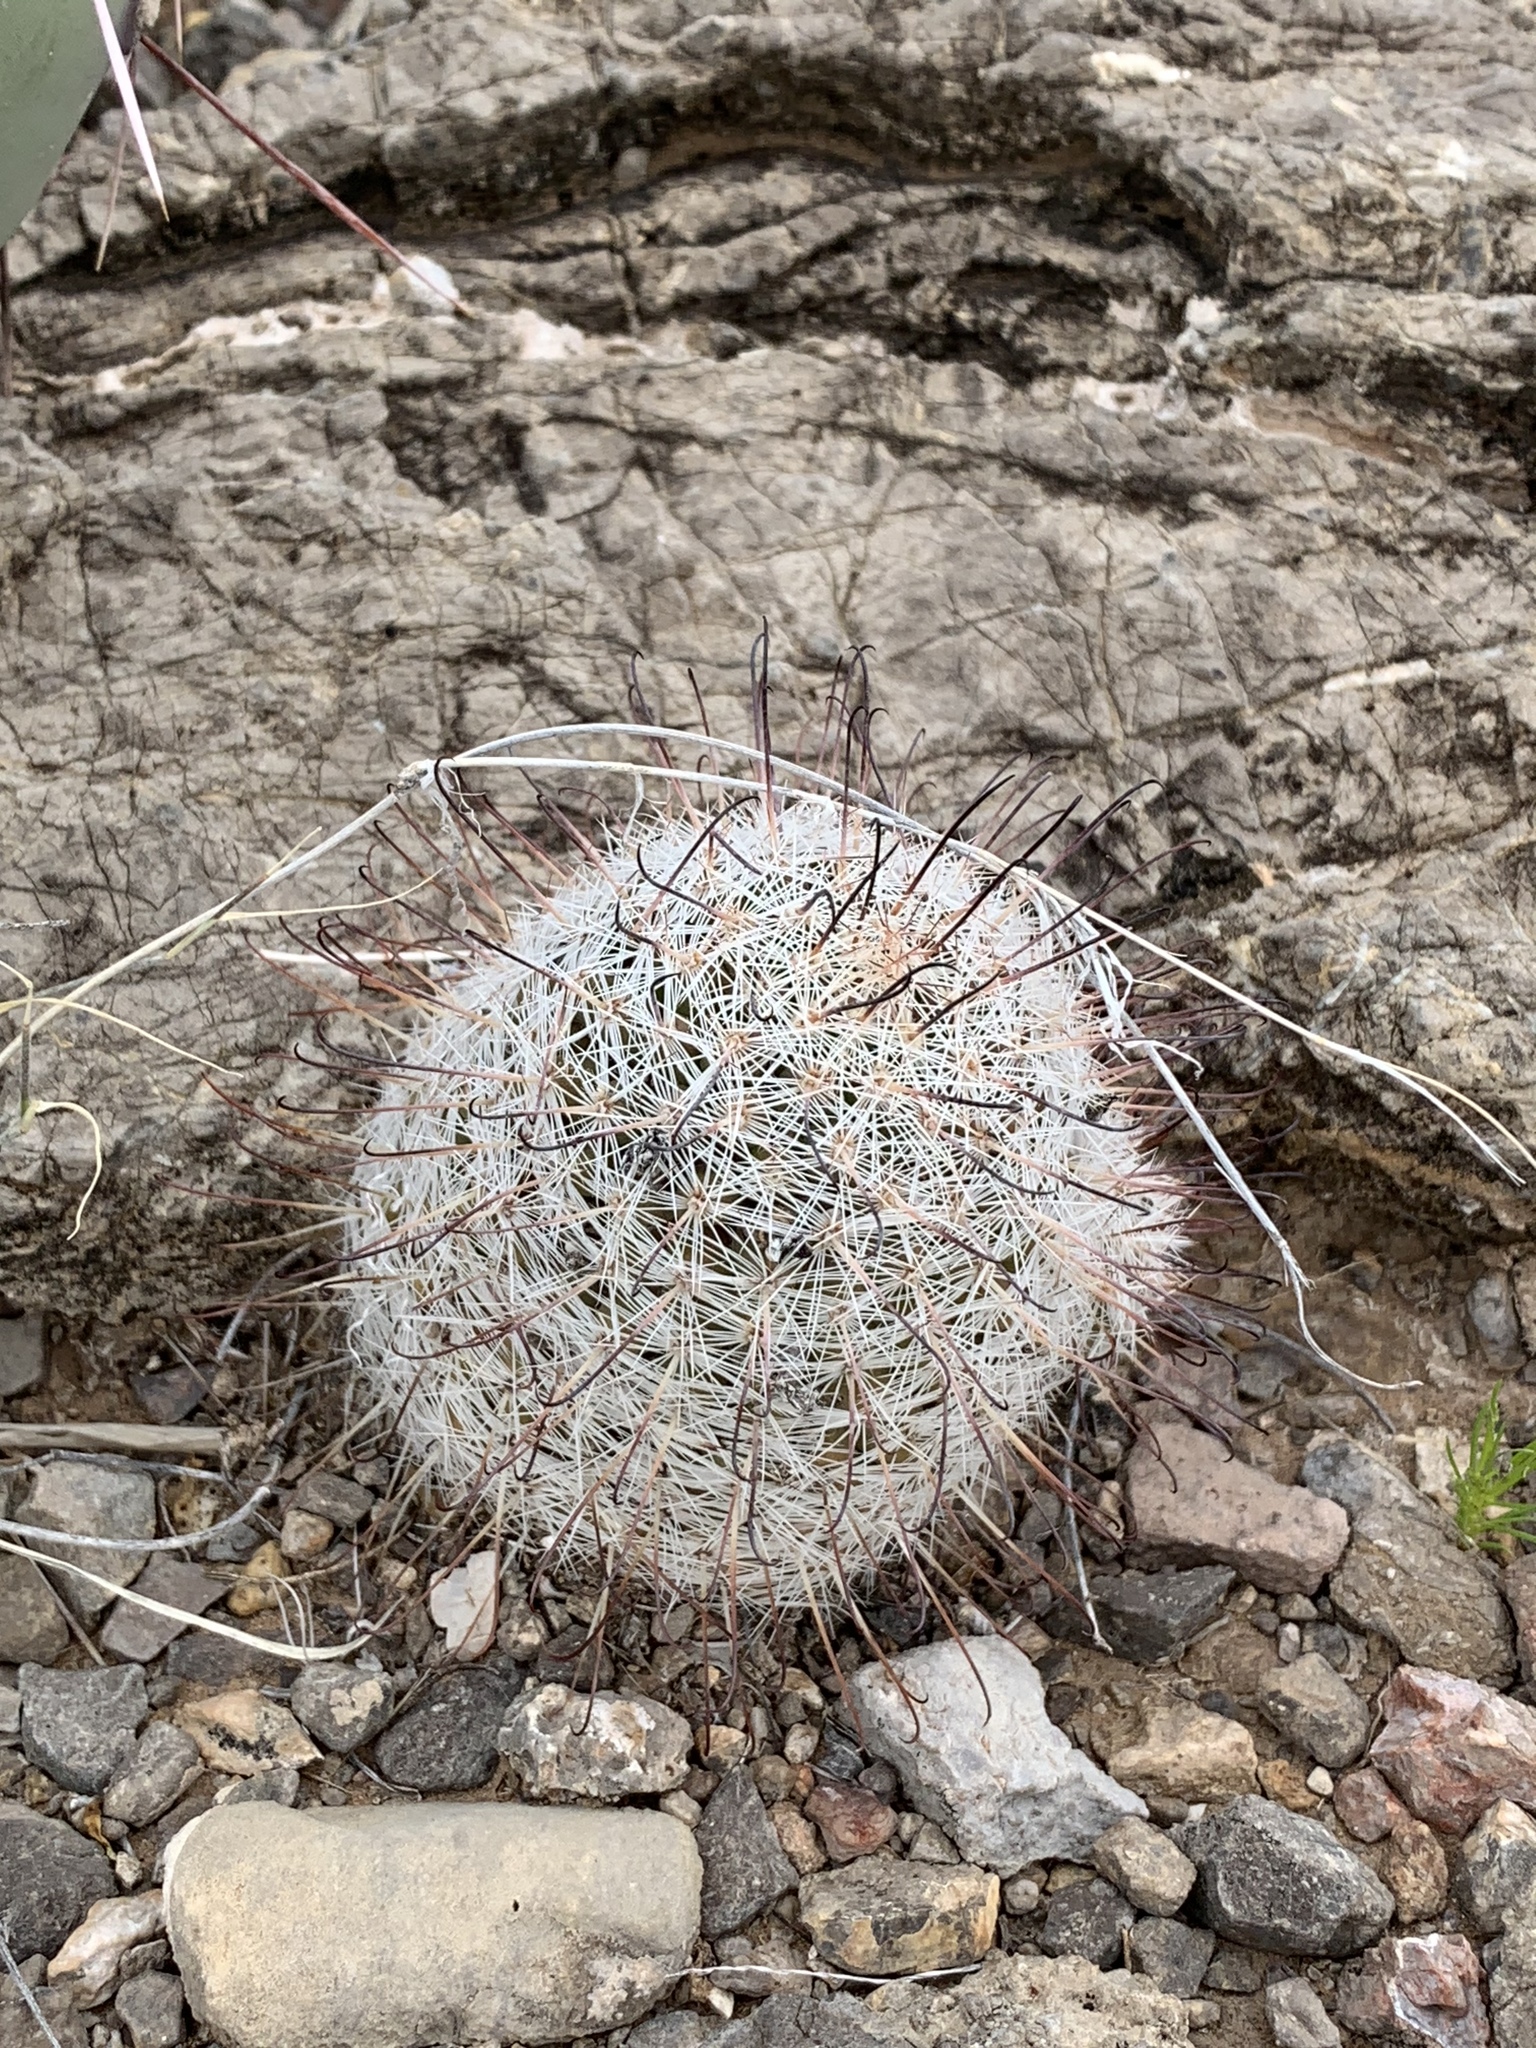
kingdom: Plantae
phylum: Tracheophyta
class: Magnoliopsida
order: Caryophyllales
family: Cactaceae
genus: Cochemiea
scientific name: Cochemiea grahamii
